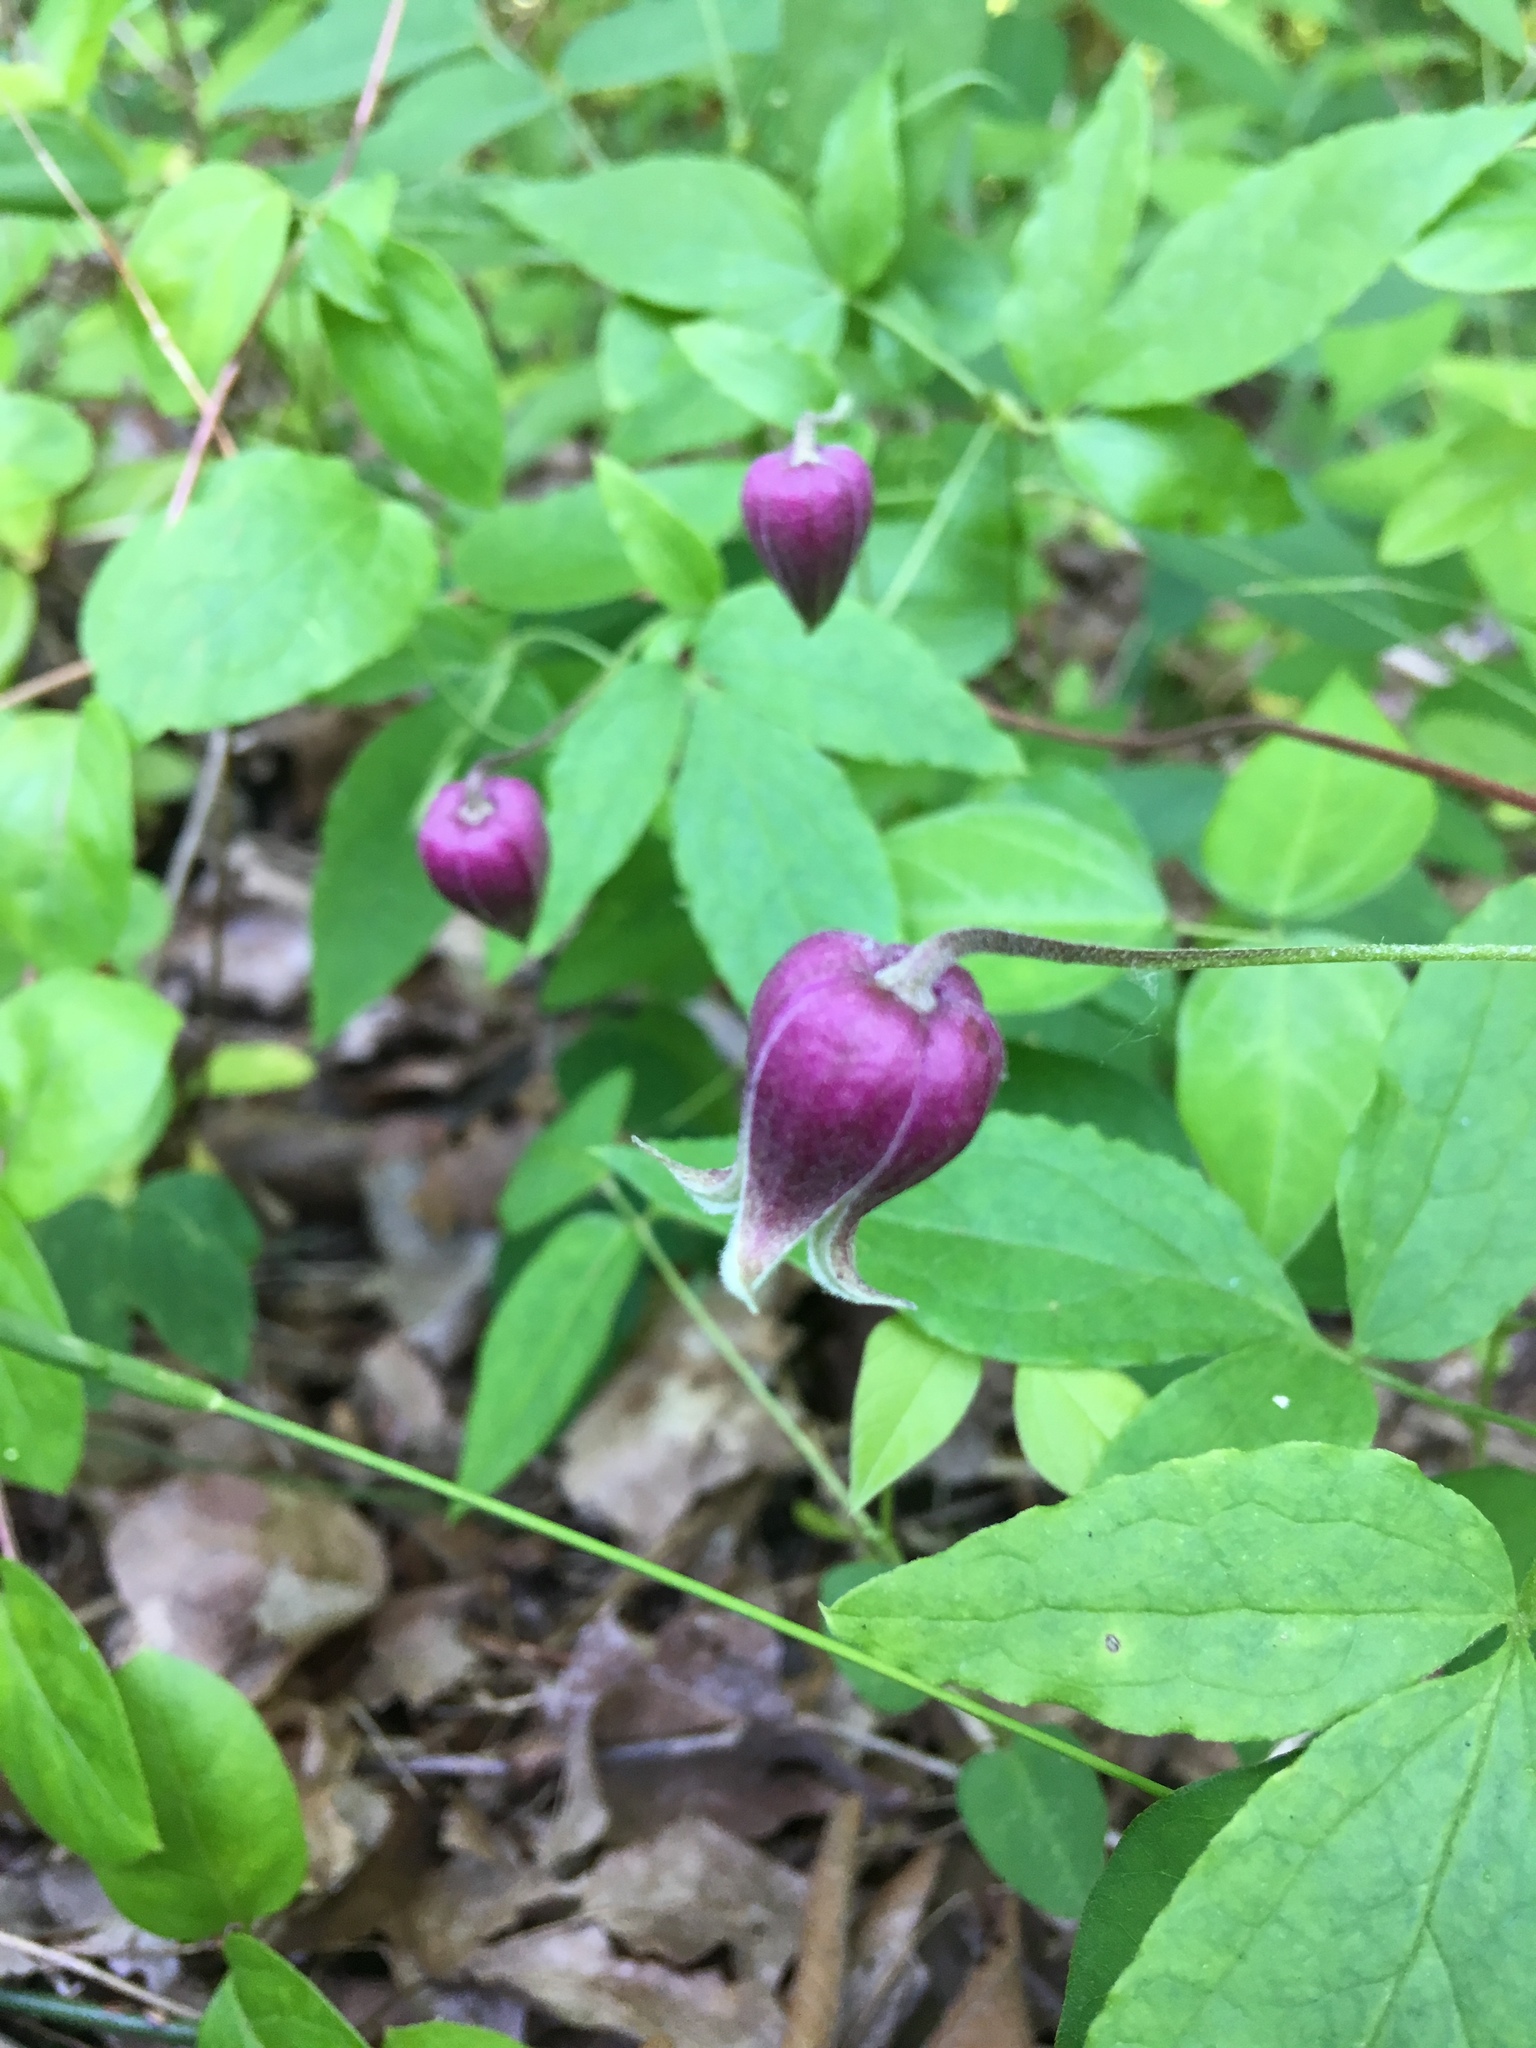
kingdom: Plantae
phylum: Tracheophyta
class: Magnoliopsida
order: Ranunculales
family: Ranunculaceae
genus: Clematis
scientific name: Clematis viorna
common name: Leather-flower
